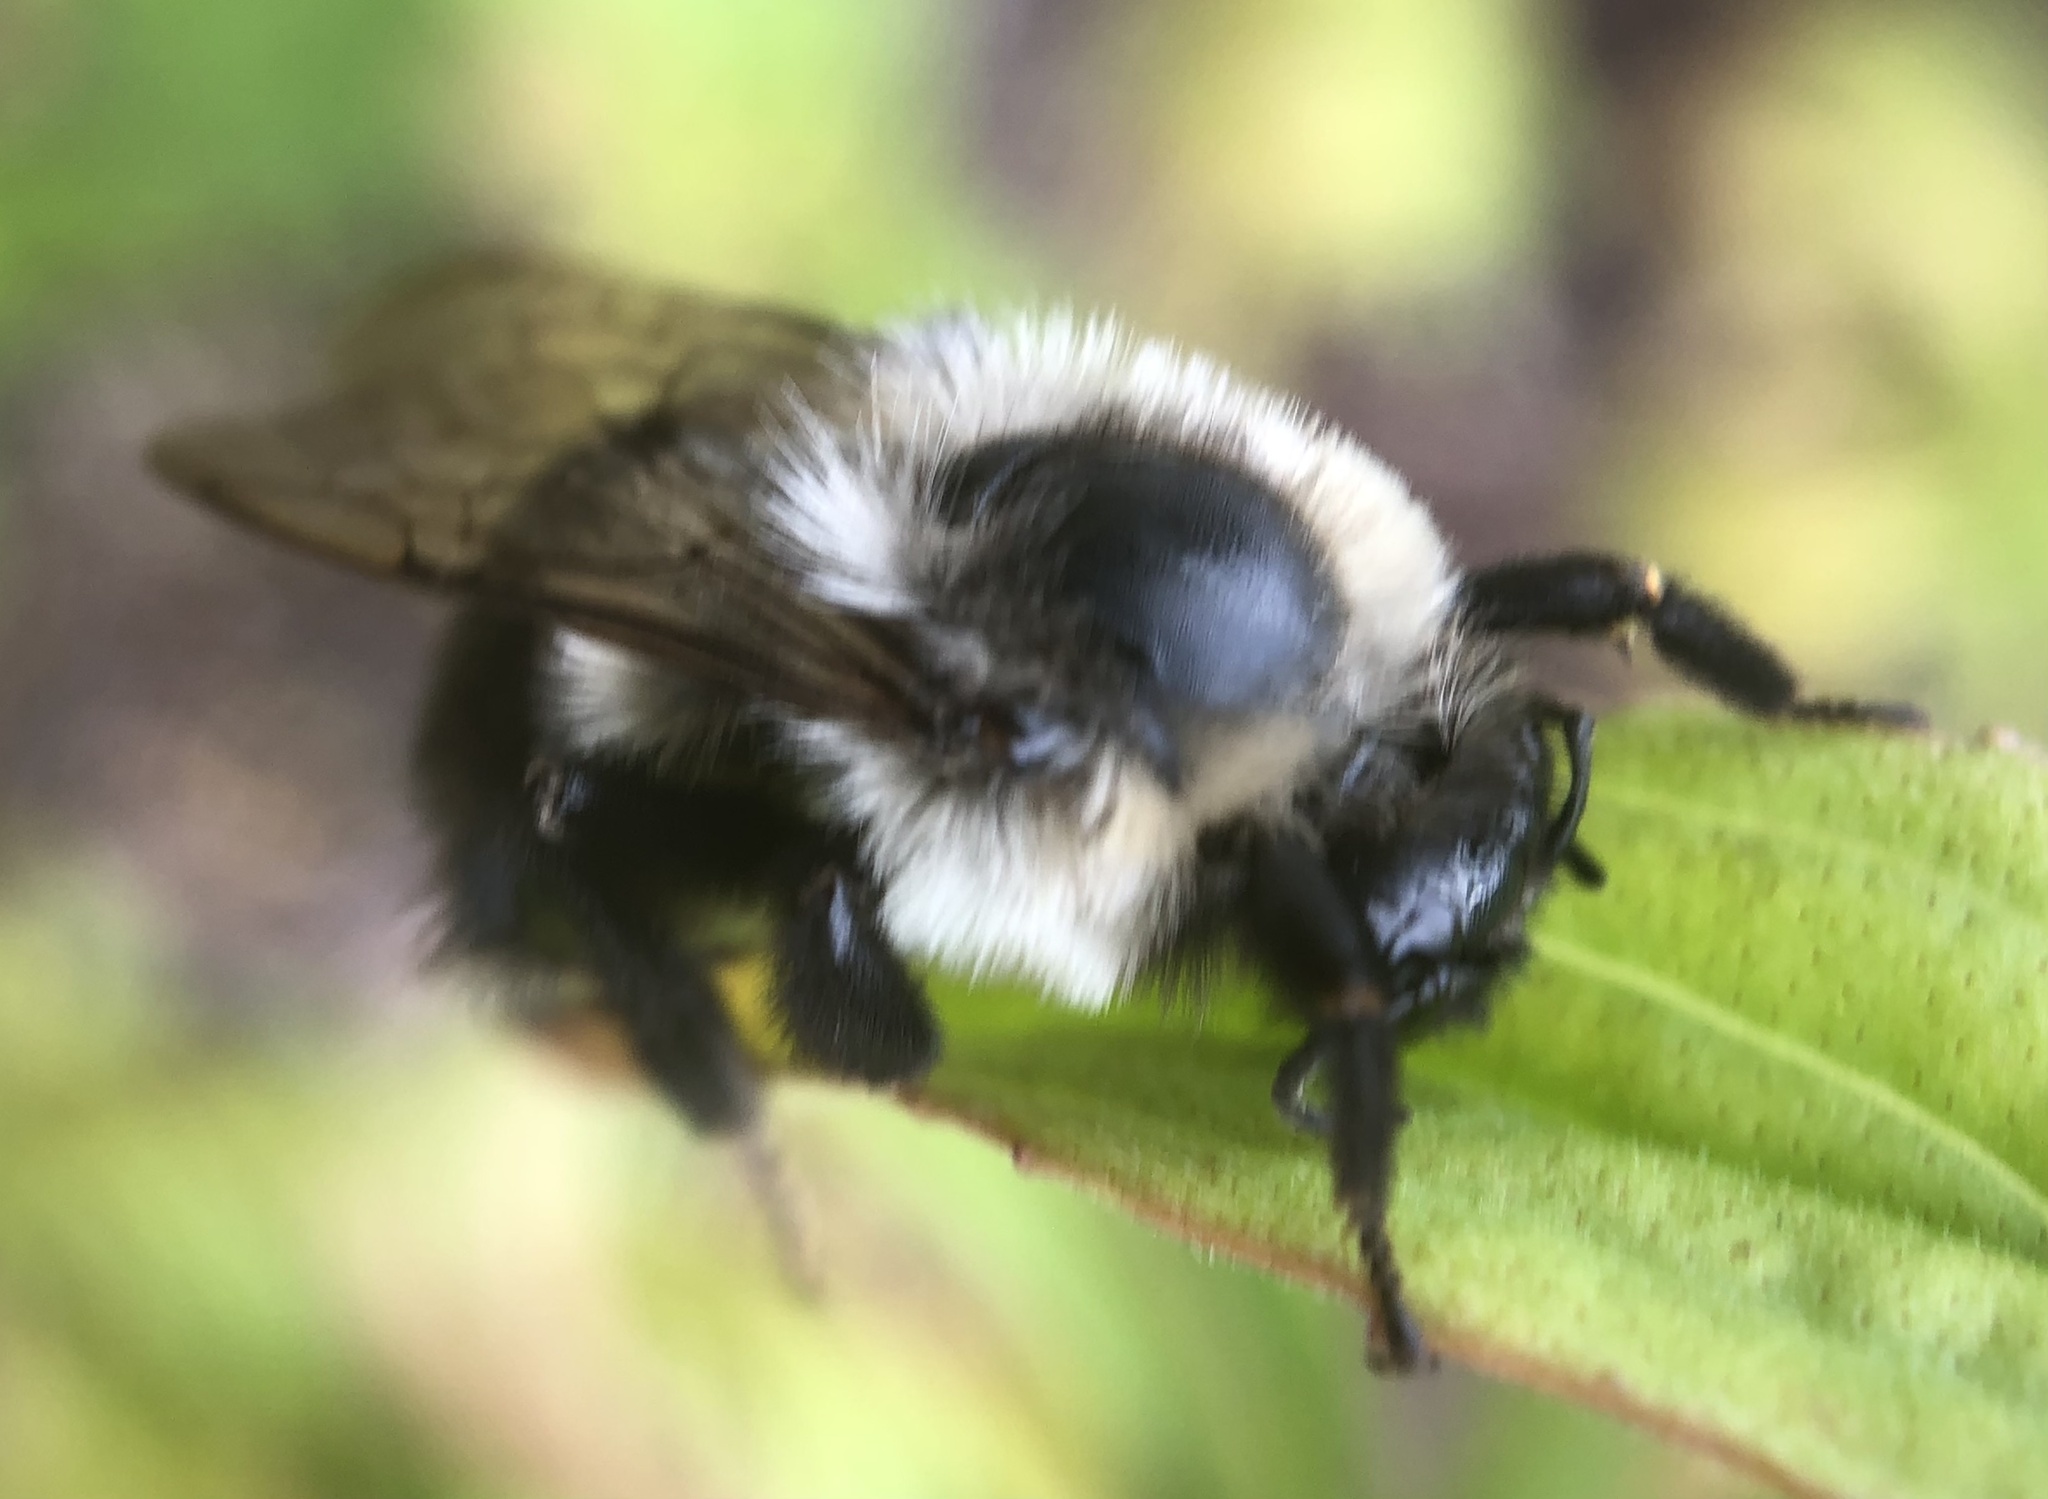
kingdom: Animalia
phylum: Arthropoda
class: Insecta
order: Hymenoptera
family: Apidae
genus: Bombus
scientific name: Bombus impatiens
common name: Common eastern bumble bee
